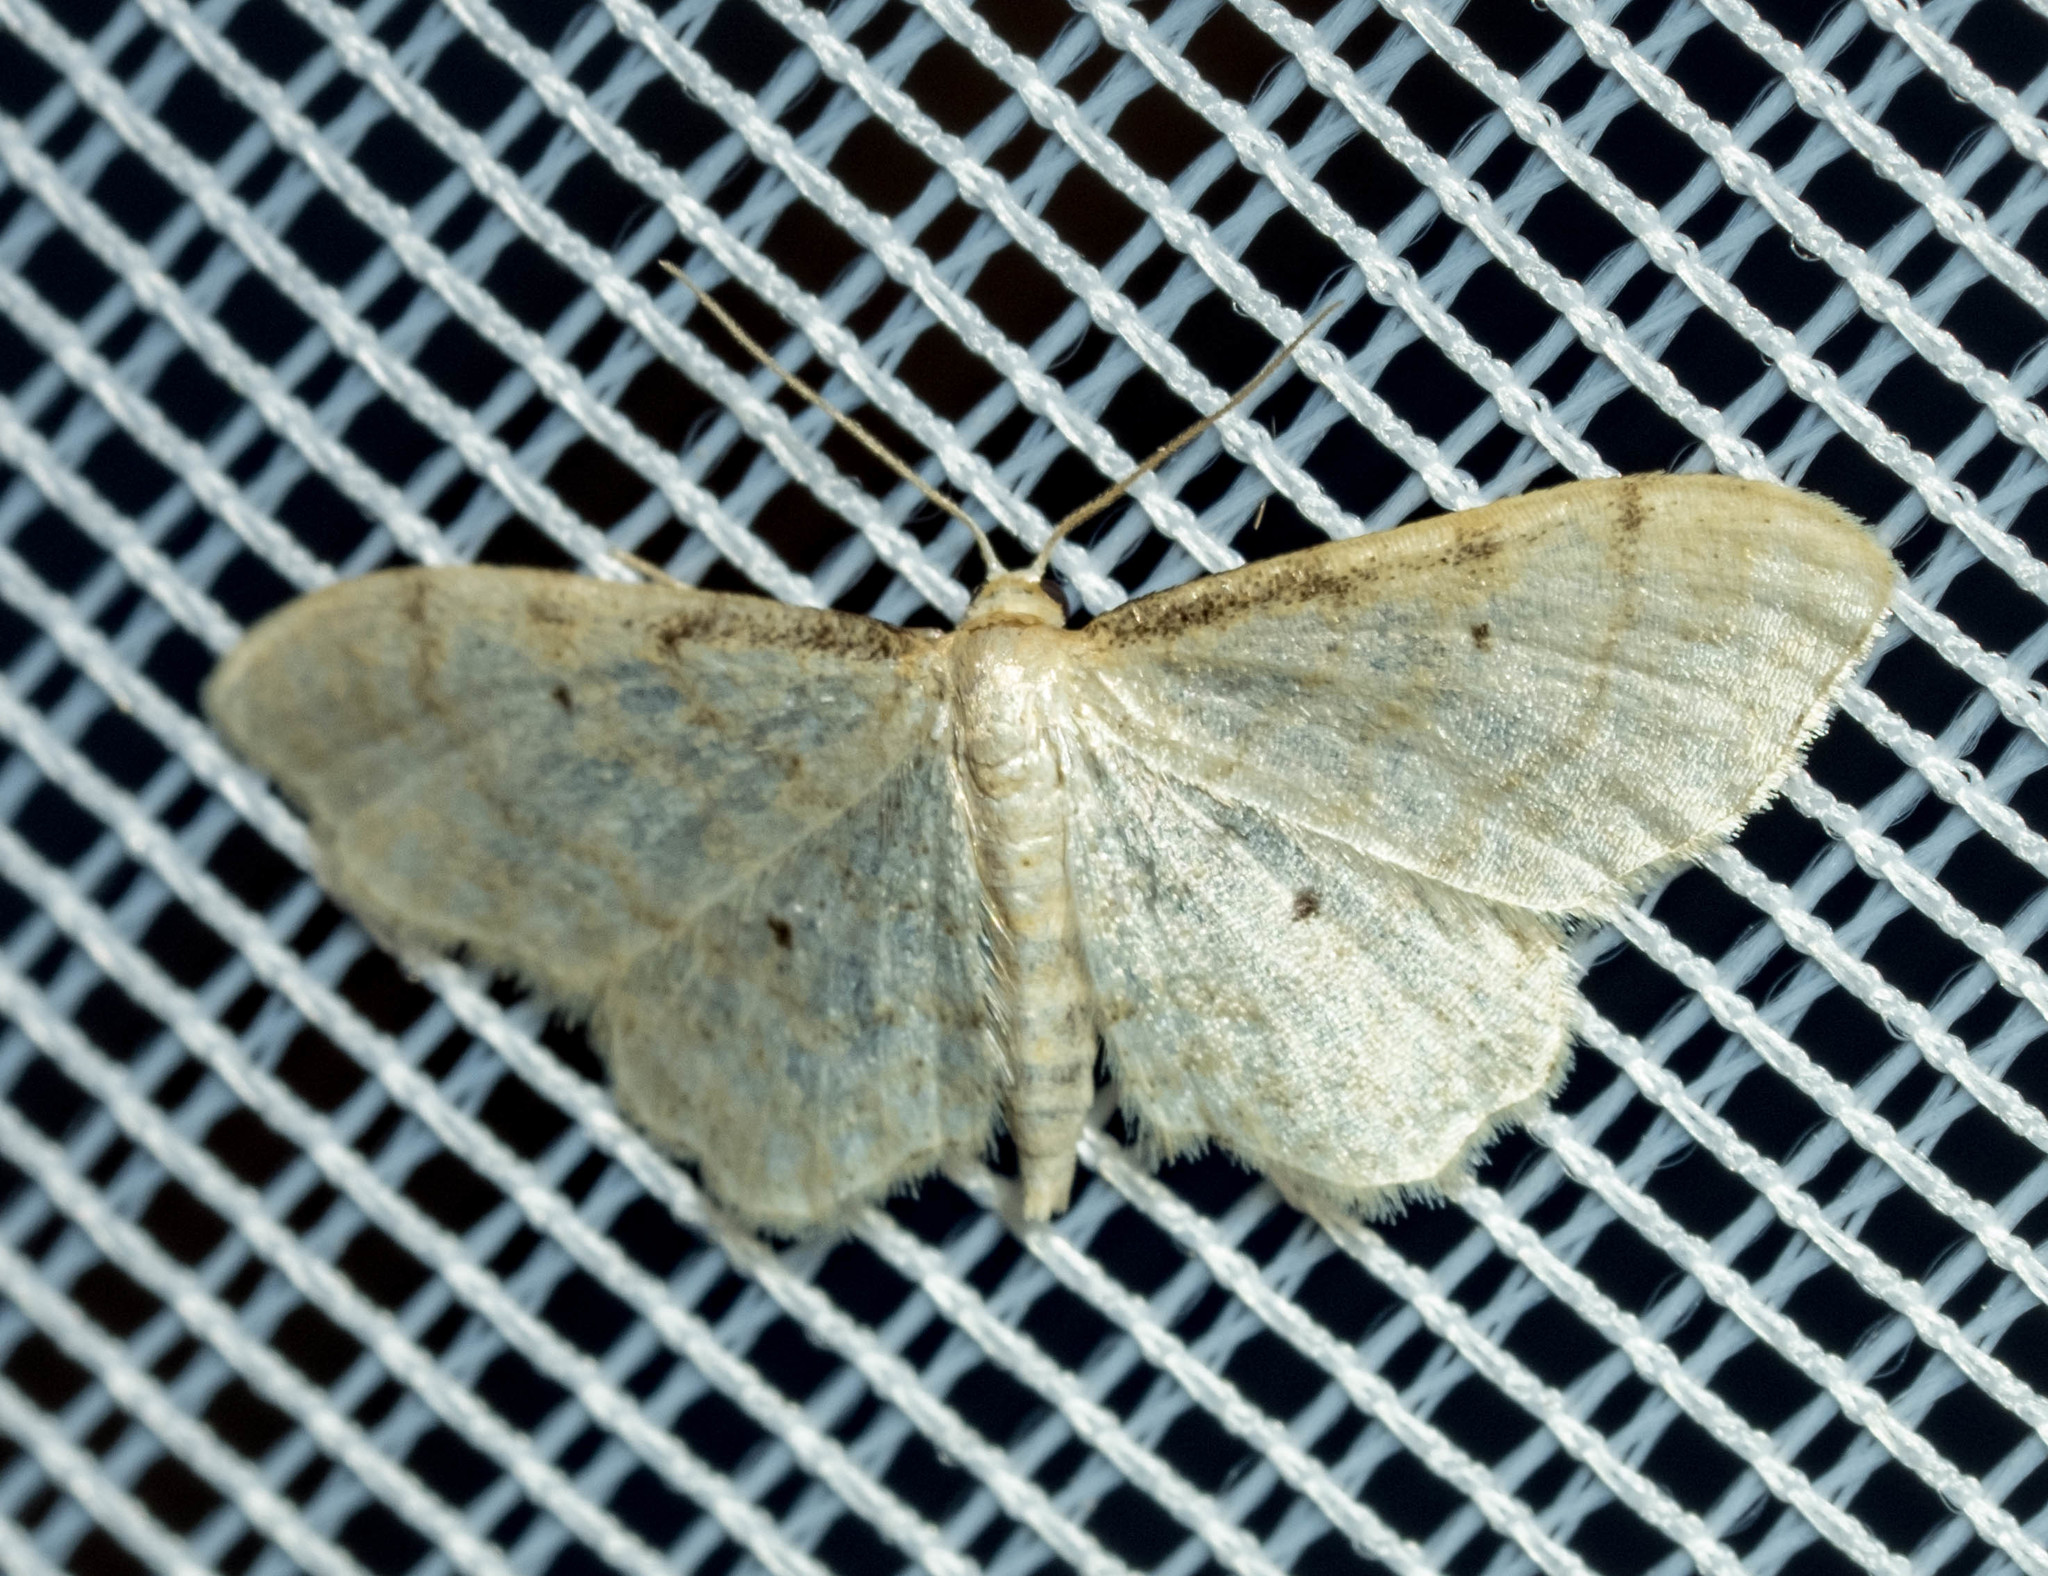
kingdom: Animalia
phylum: Arthropoda
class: Insecta
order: Lepidoptera
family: Geometridae
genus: Idaea
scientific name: Idaea fuscovenosa
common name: Dwarf cream wave
